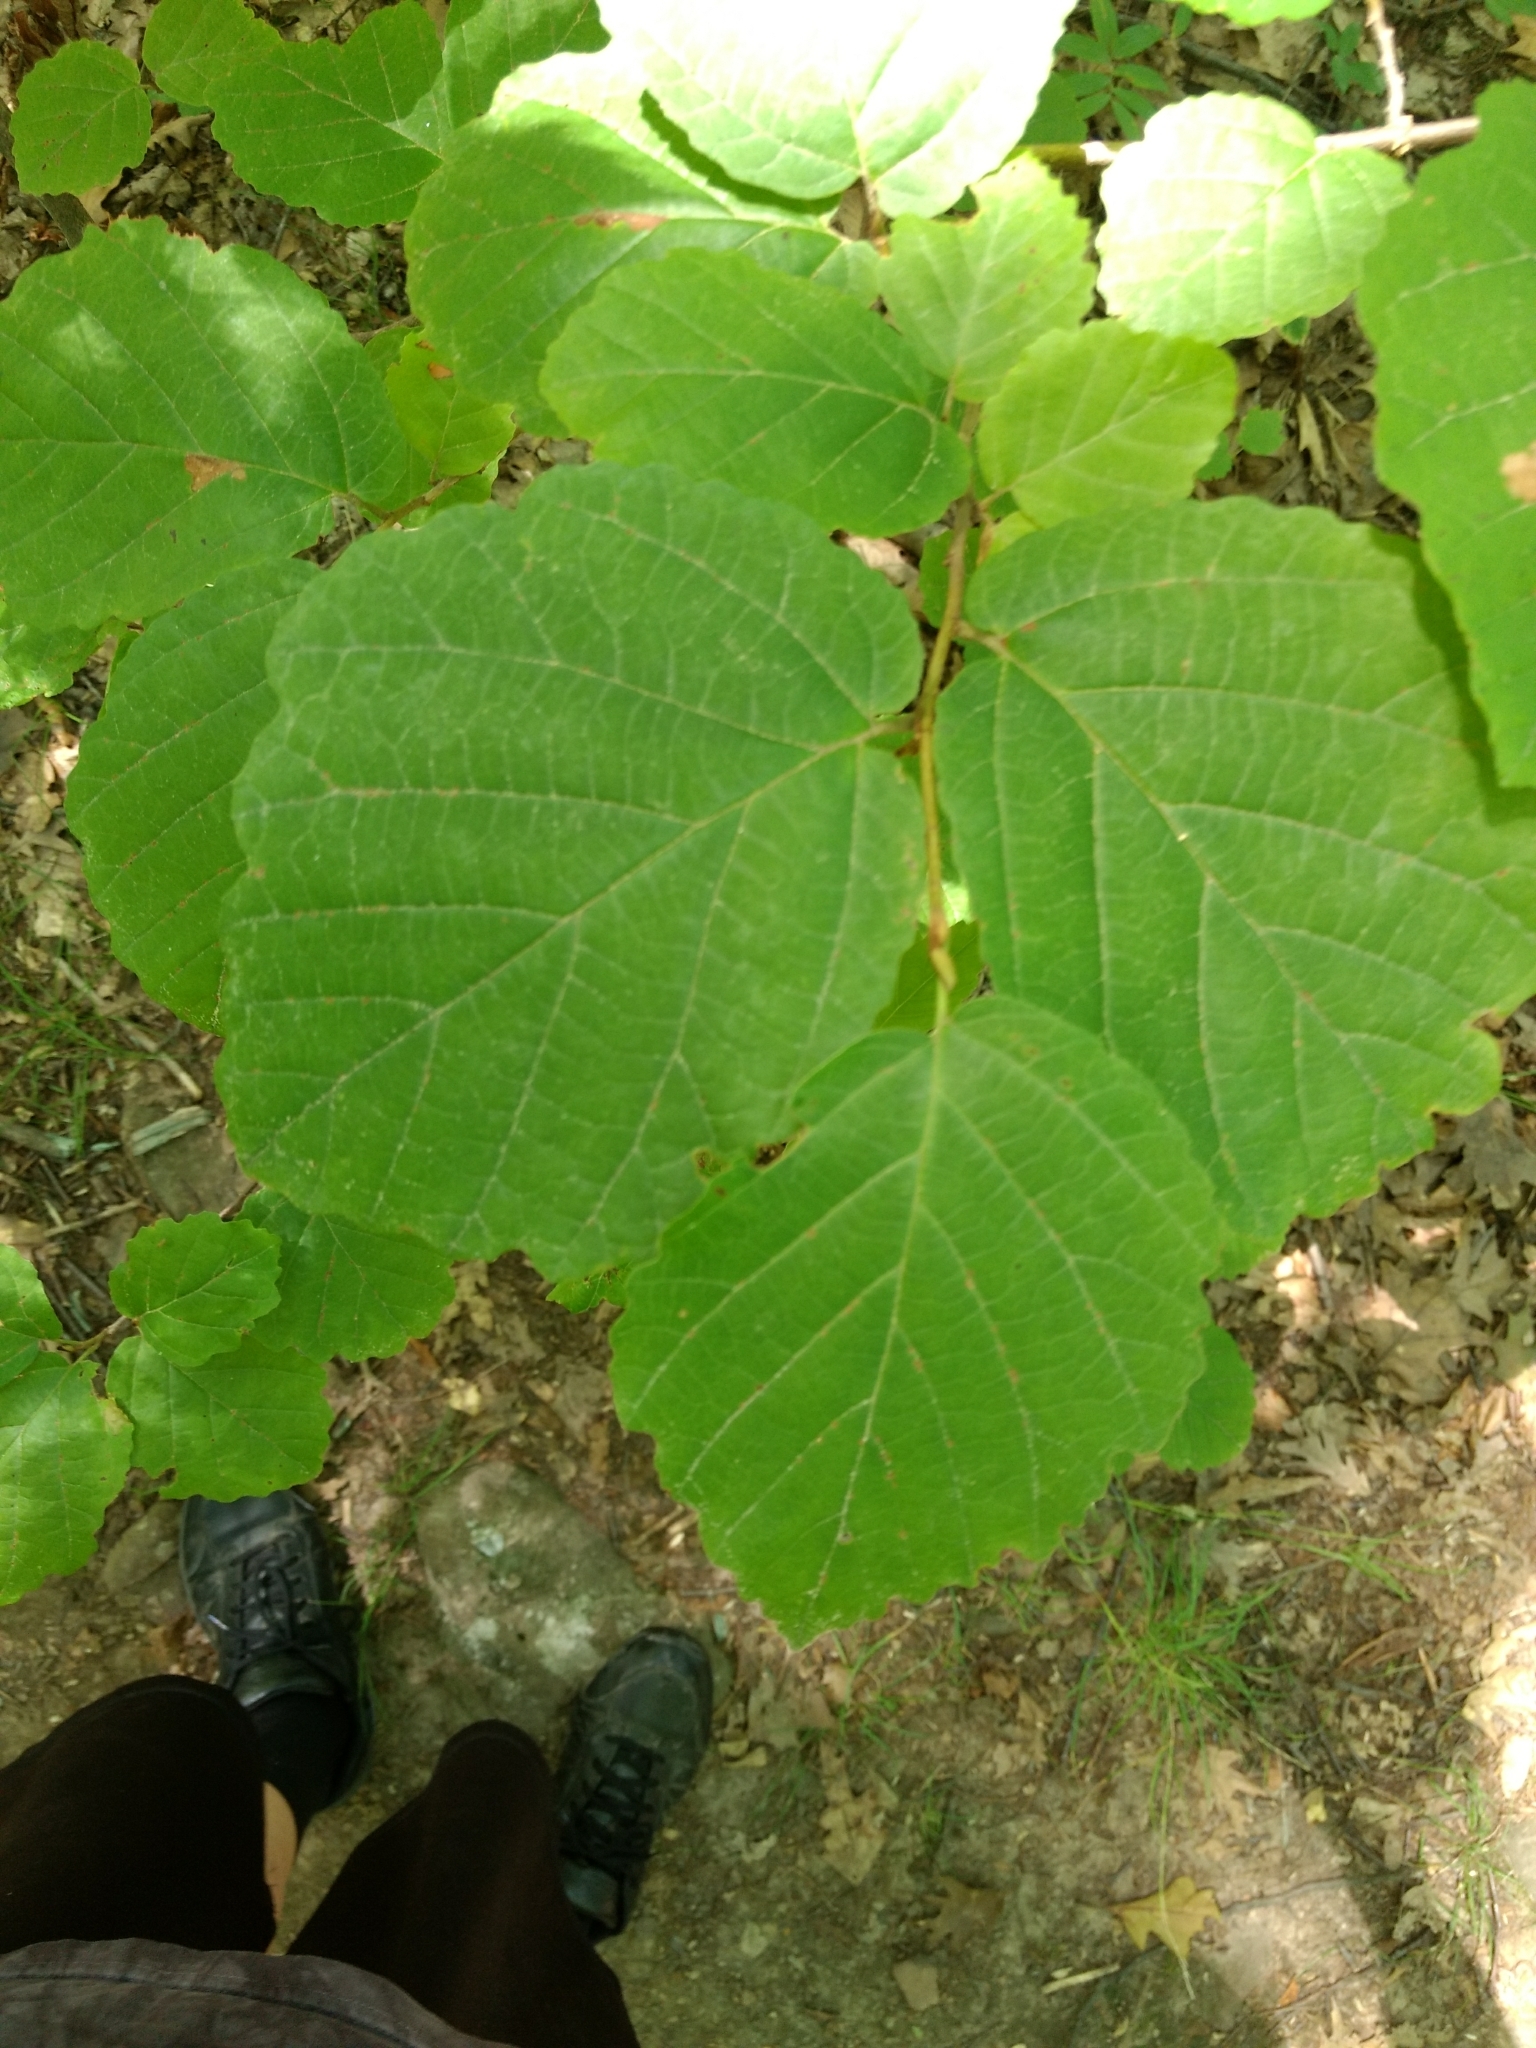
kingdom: Plantae
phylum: Tracheophyta
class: Magnoliopsida
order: Saxifragales
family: Hamamelidaceae
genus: Hamamelis
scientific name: Hamamelis virginiana
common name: Witch-hazel
